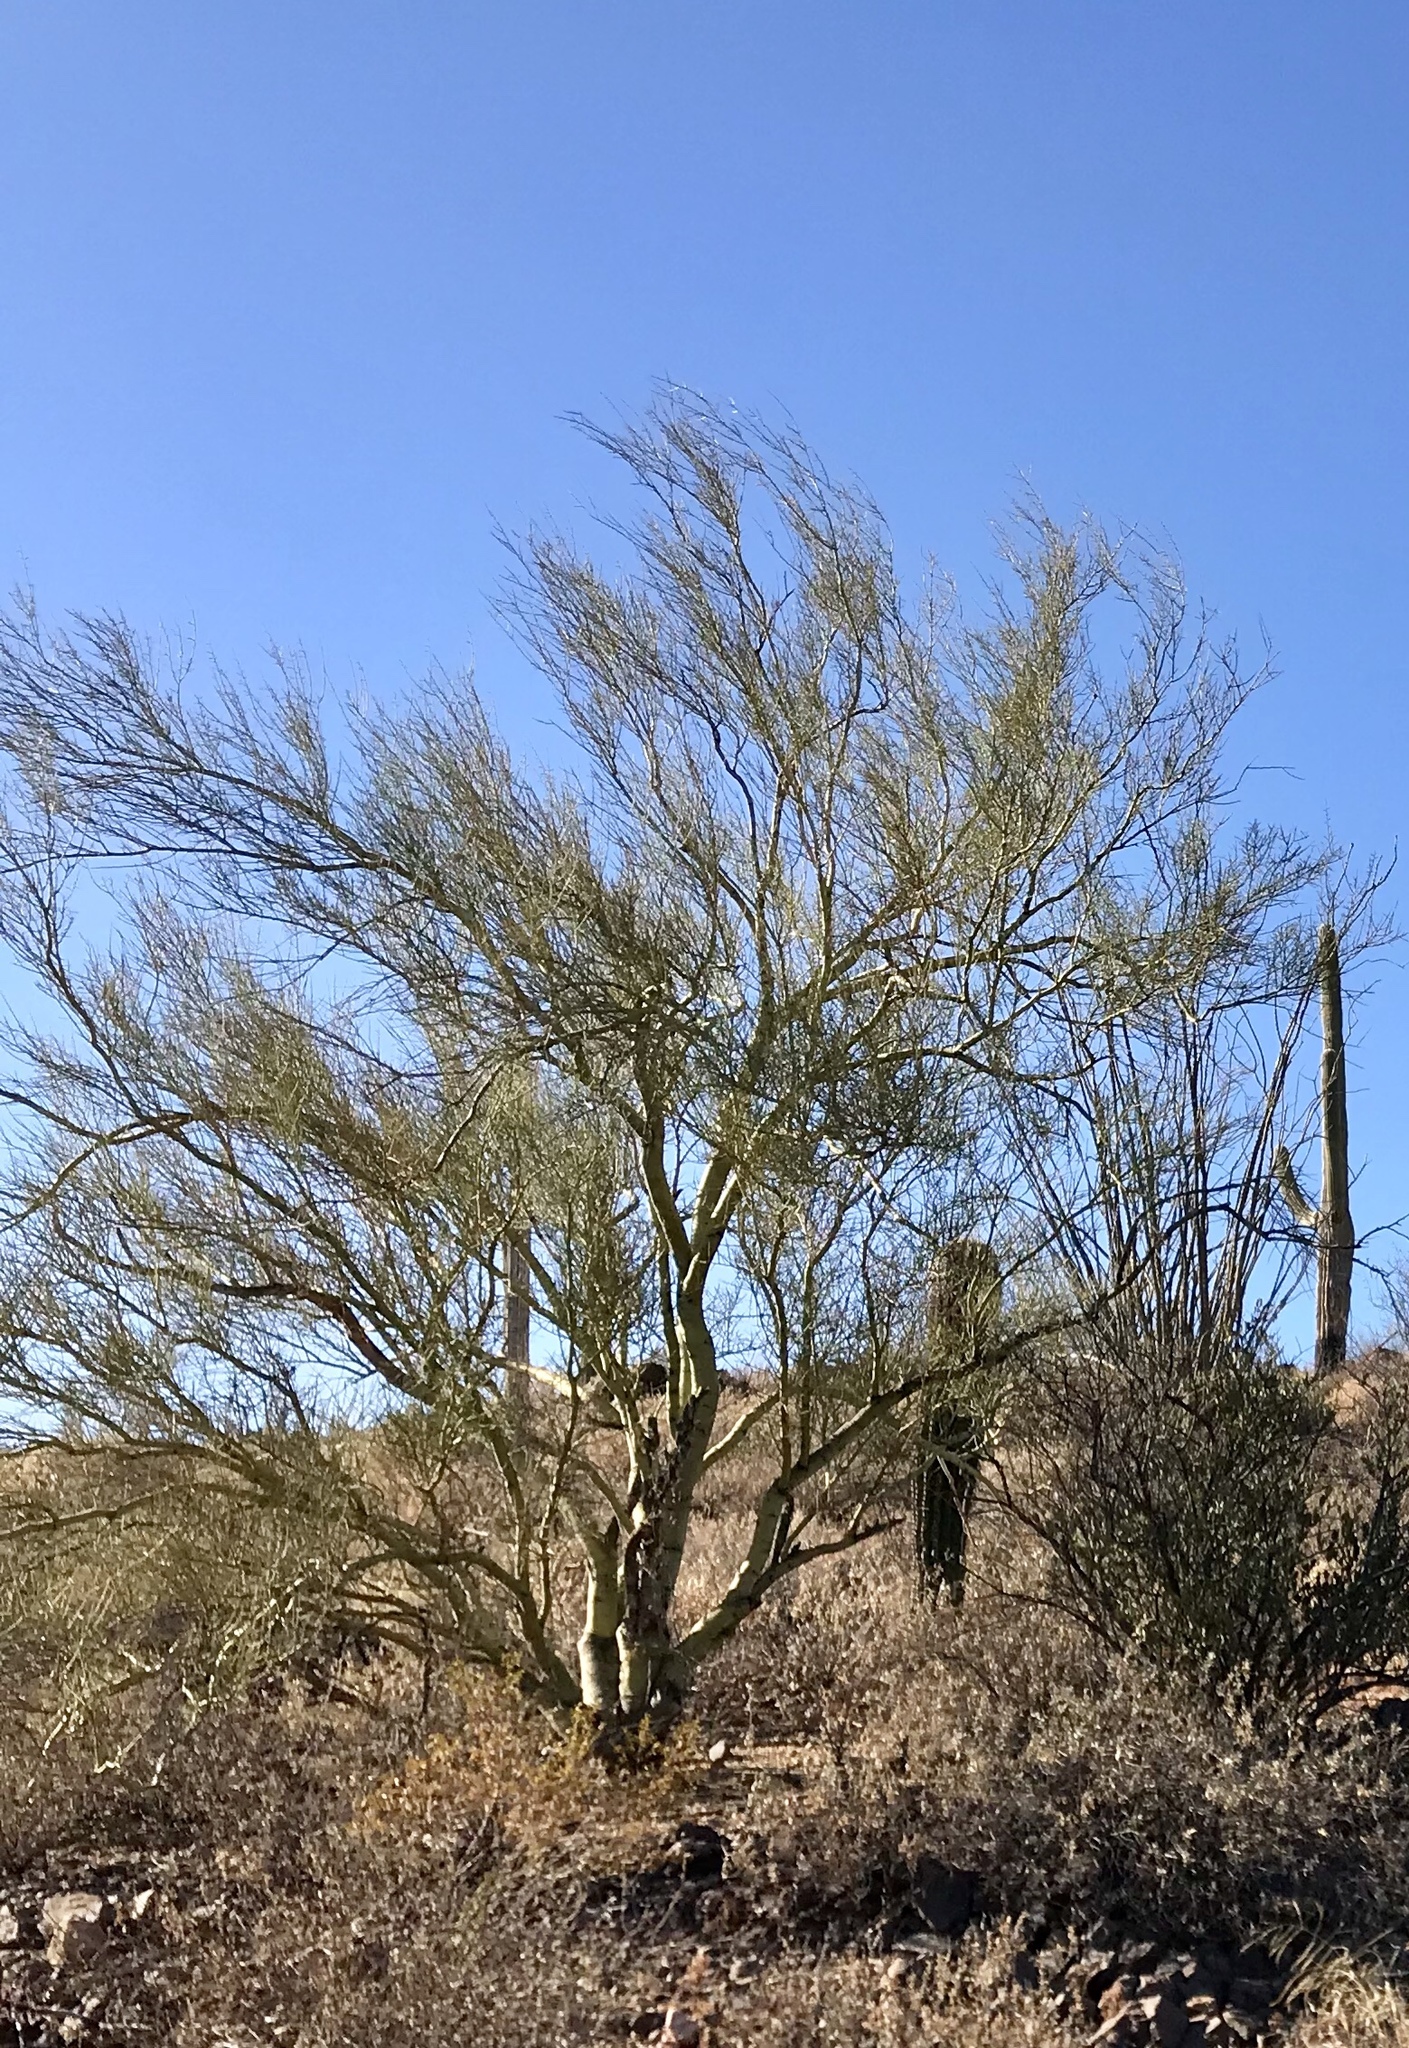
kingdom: Plantae
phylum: Tracheophyta
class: Magnoliopsida
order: Fabales
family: Fabaceae
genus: Parkinsonia
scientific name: Parkinsonia microphylla
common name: Yellow paloverde
